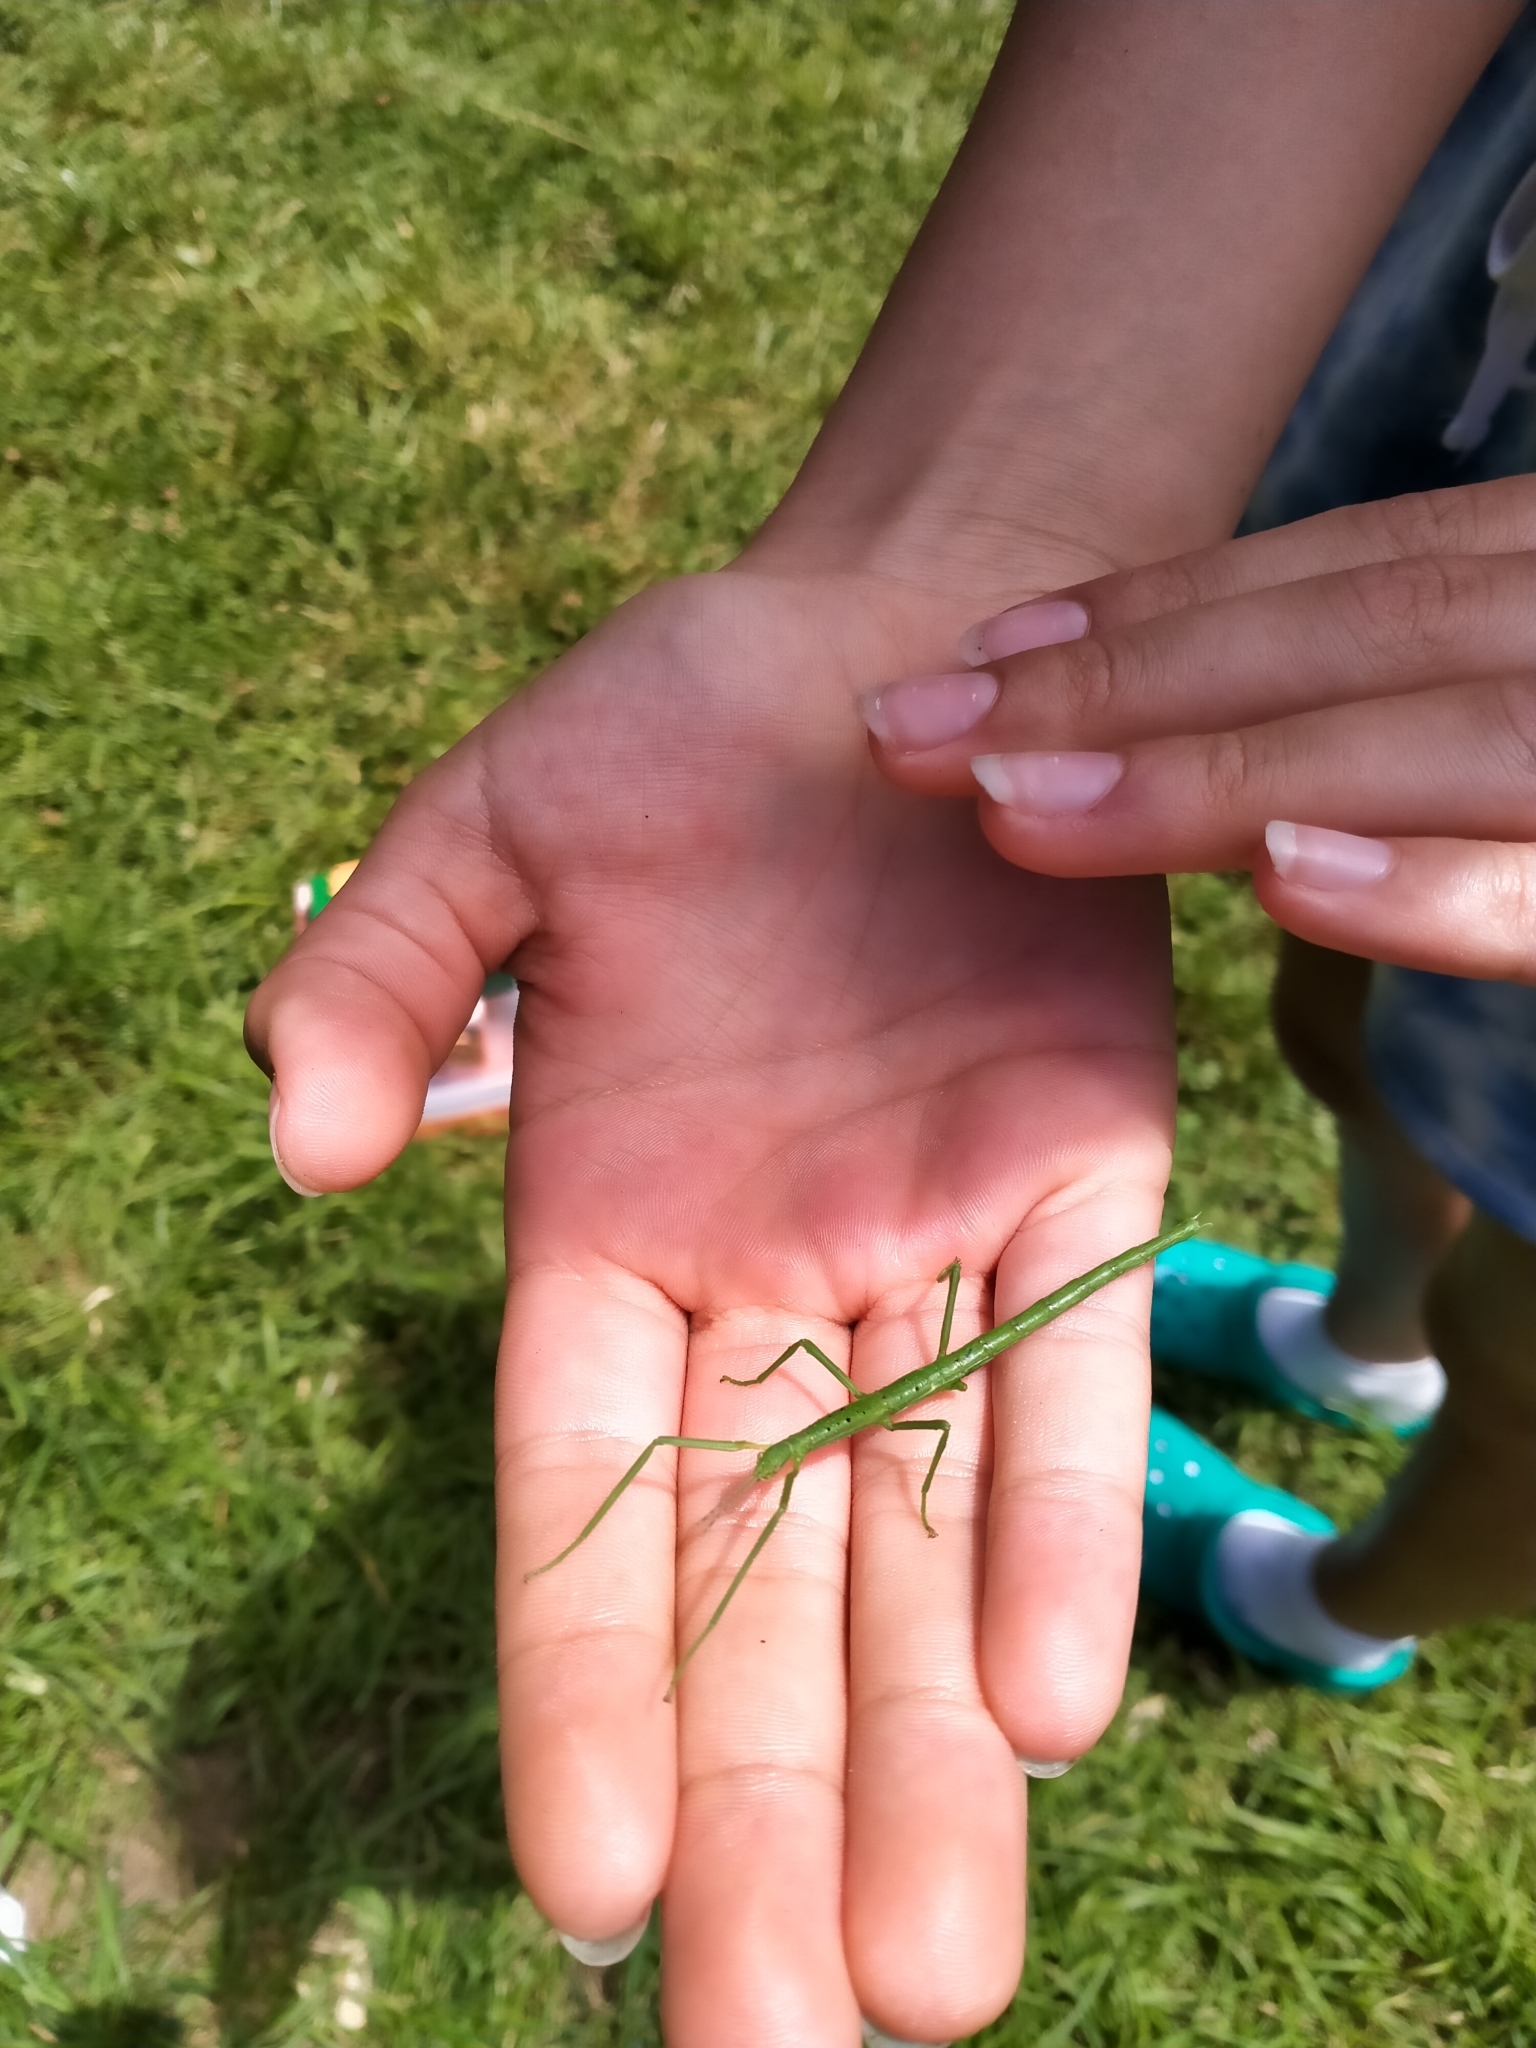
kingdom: Animalia
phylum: Arthropoda
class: Insecta
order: Phasmida
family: Phasmatidae
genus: Acanthoxyla
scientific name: Acanthoxyla prasina
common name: Black-spined stick insect
